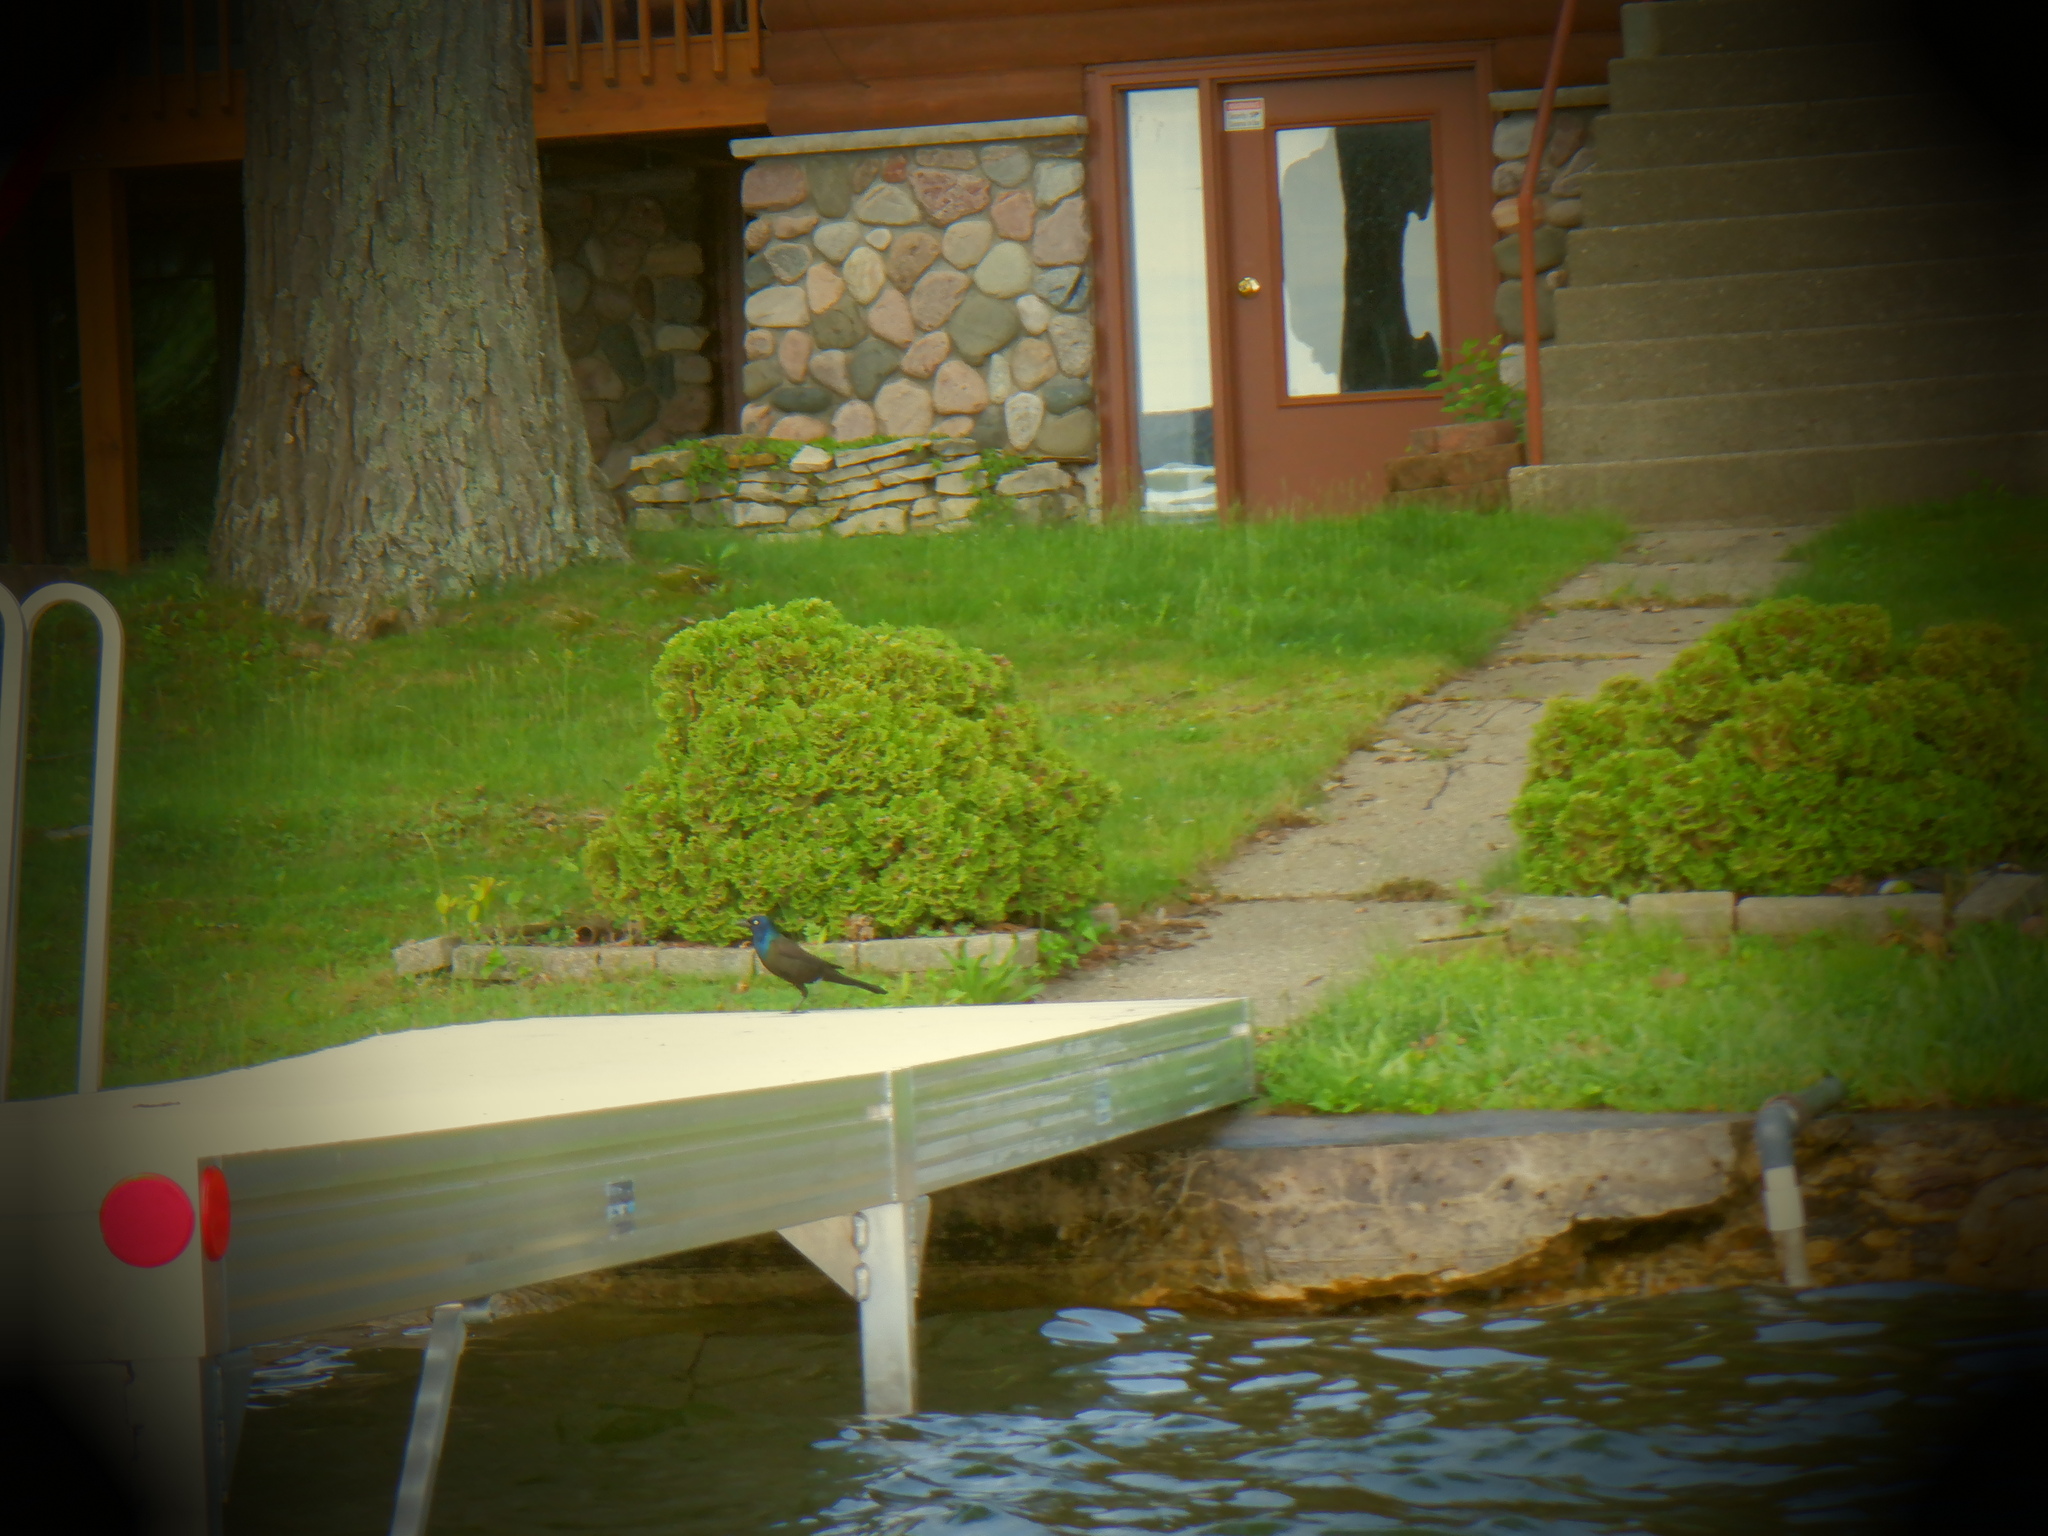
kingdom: Animalia
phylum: Chordata
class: Aves
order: Passeriformes
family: Icteridae
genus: Quiscalus
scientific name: Quiscalus quiscula
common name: Common grackle
